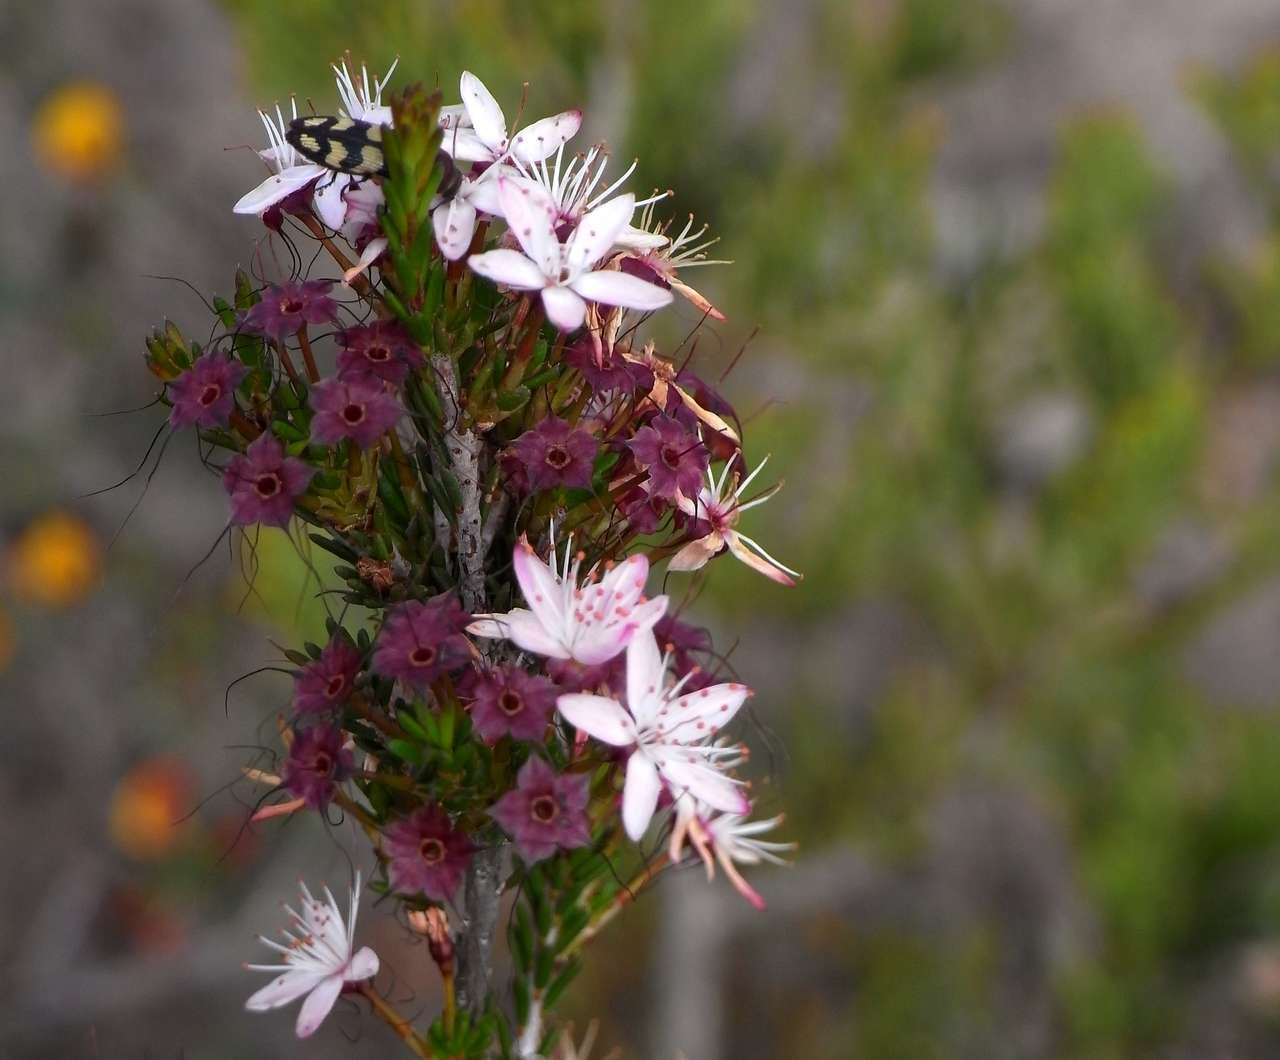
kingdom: Plantae
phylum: Tracheophyta
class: Magnoliopsida
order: Myrtales
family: Myrtaceae
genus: Calytrix
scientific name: Calytrix tetragona
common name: Common fringe myrtle
